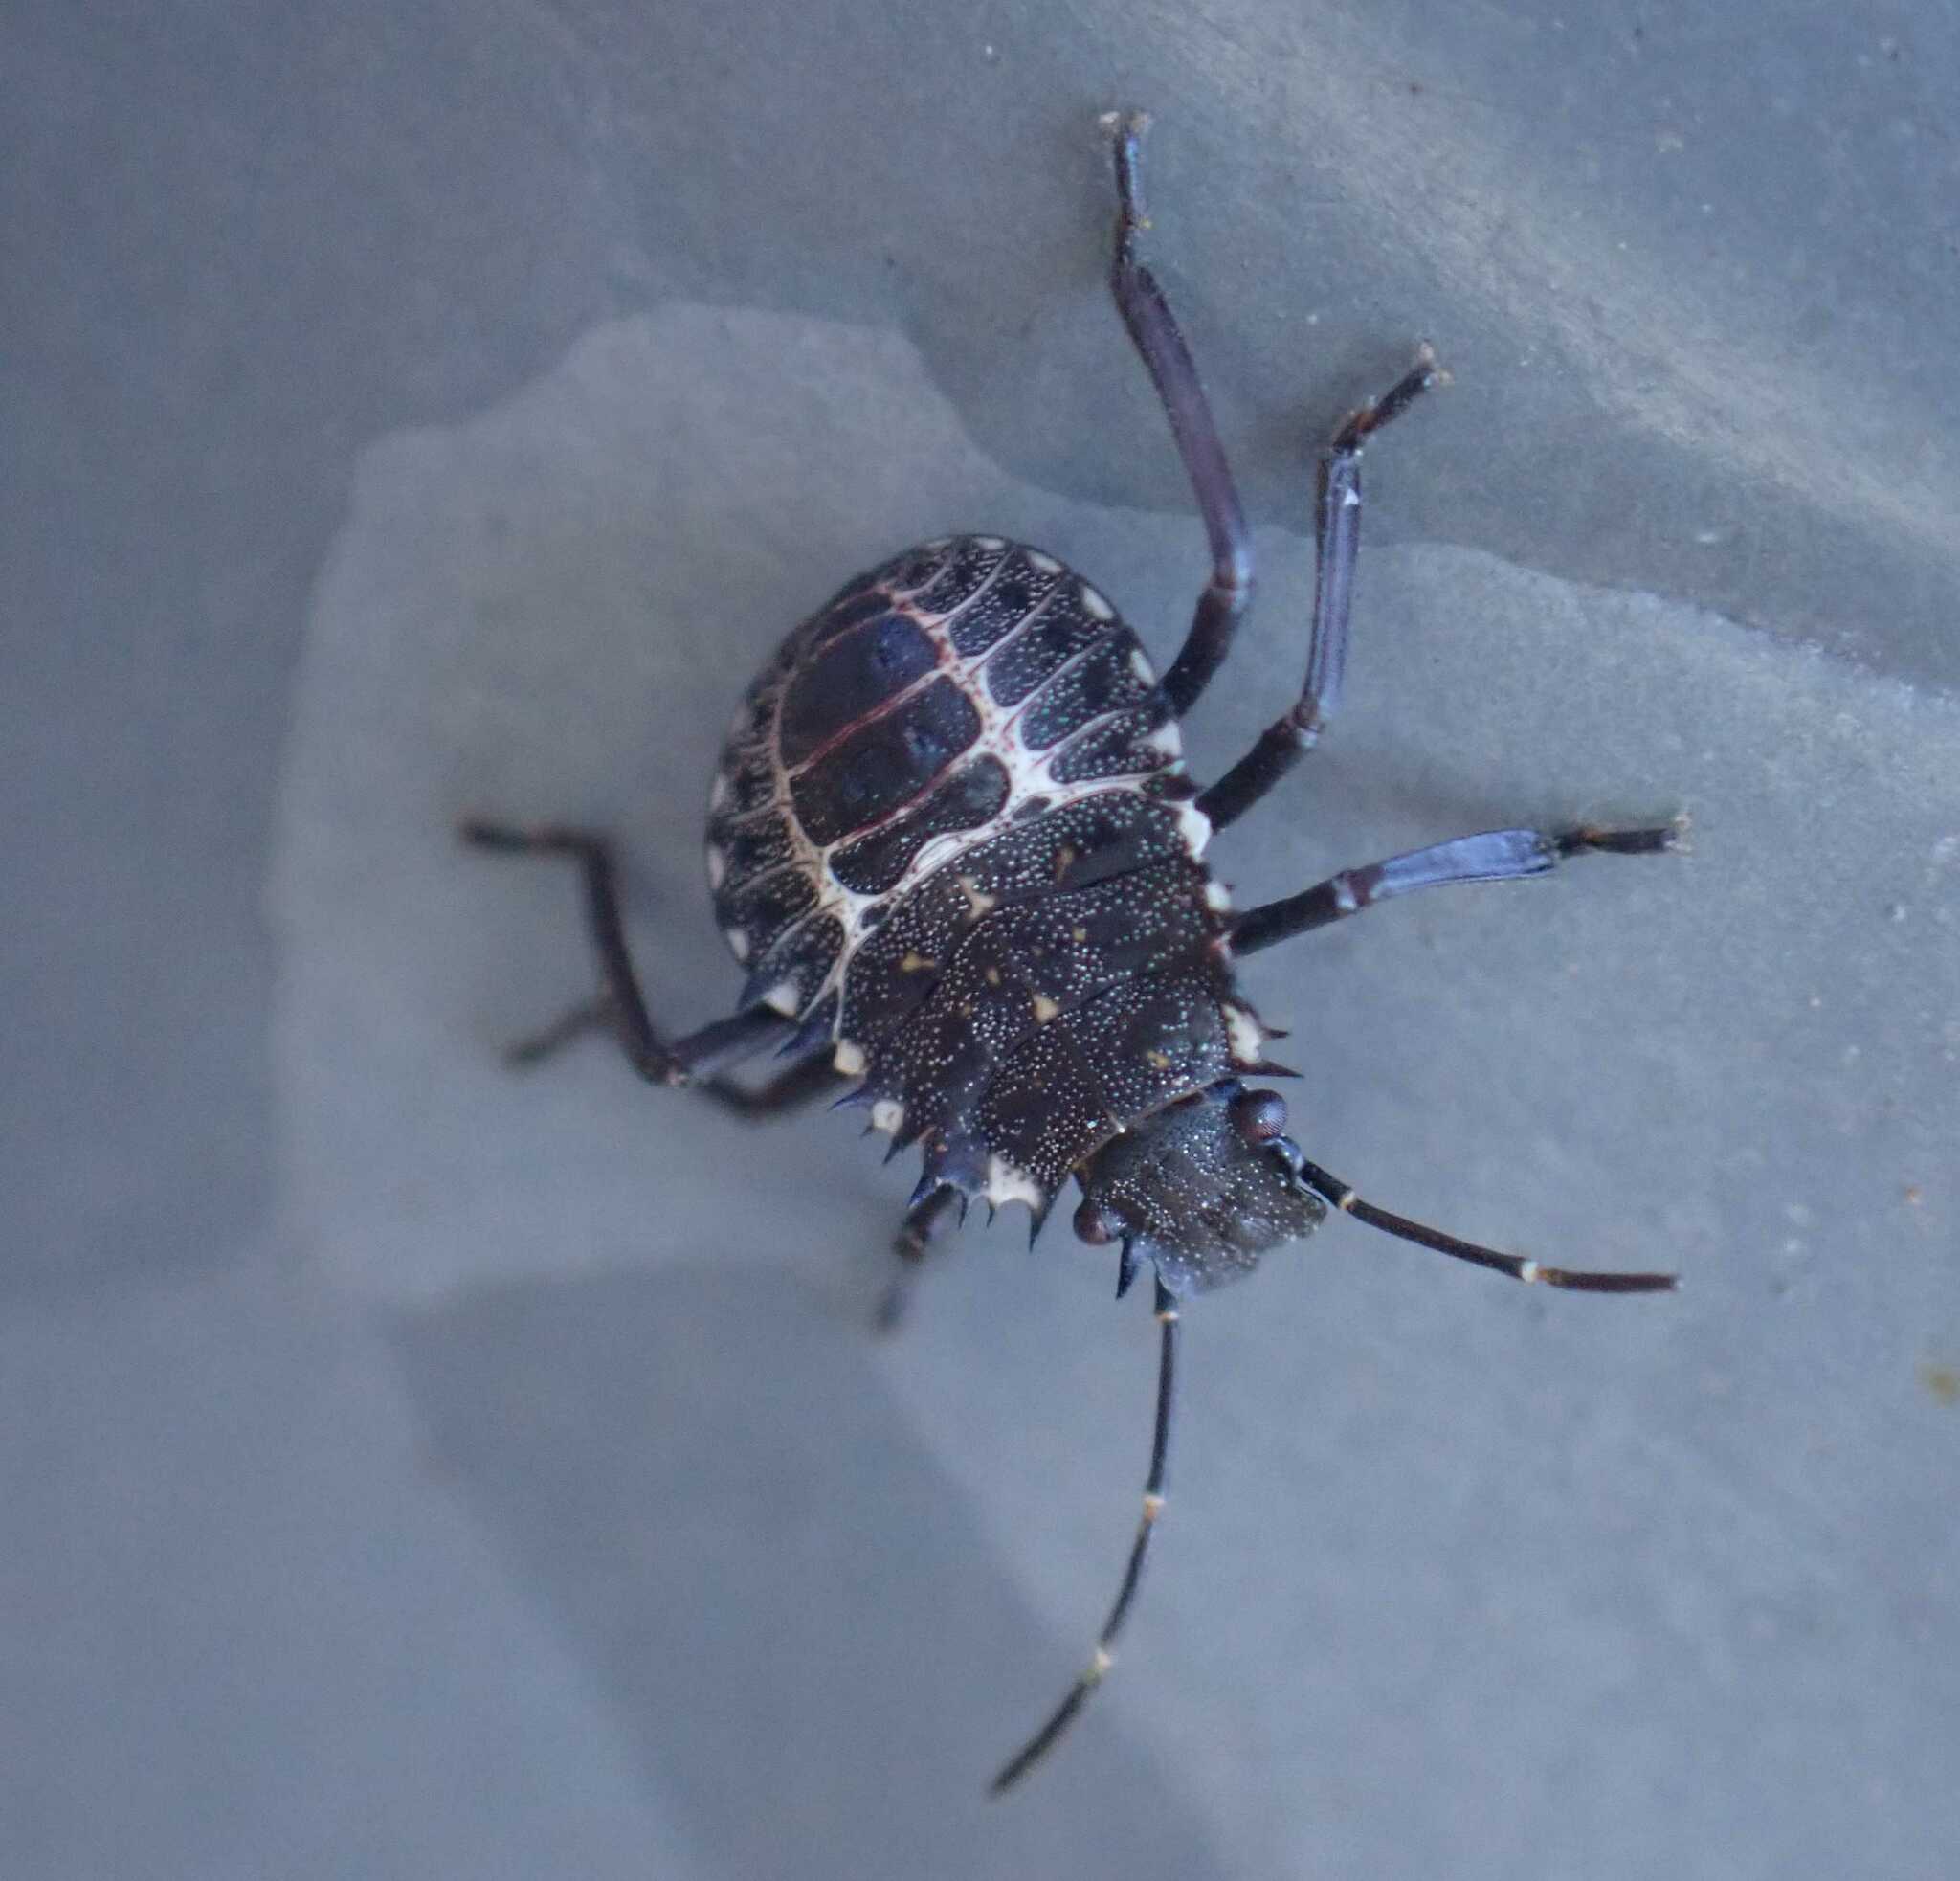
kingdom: Animalia
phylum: Arthropoda
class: Insecta
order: Hemiptera
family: Pentatomidae
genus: Halyomorpha
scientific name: Halyomorpha halys
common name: Brown marmorated stink bug
